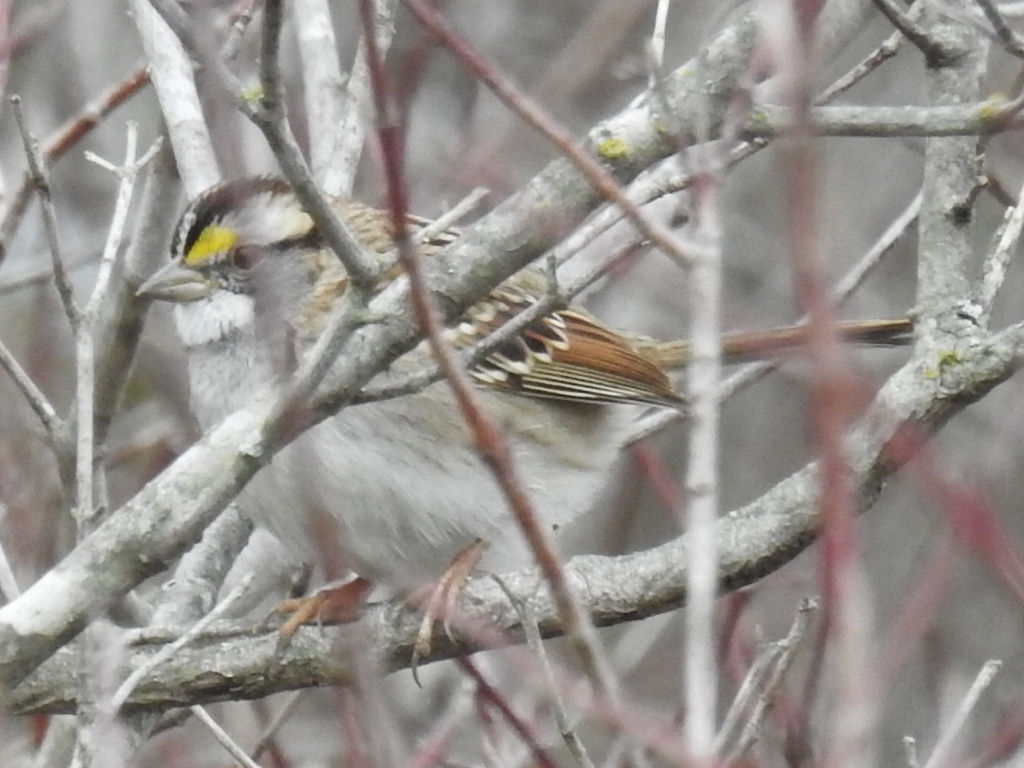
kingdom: Animalia
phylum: Chordata
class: Aves
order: Passeriformes
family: Passerellidae
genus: Zonotrichia
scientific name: Zonotrichia albicollis
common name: White-throated sparrow
